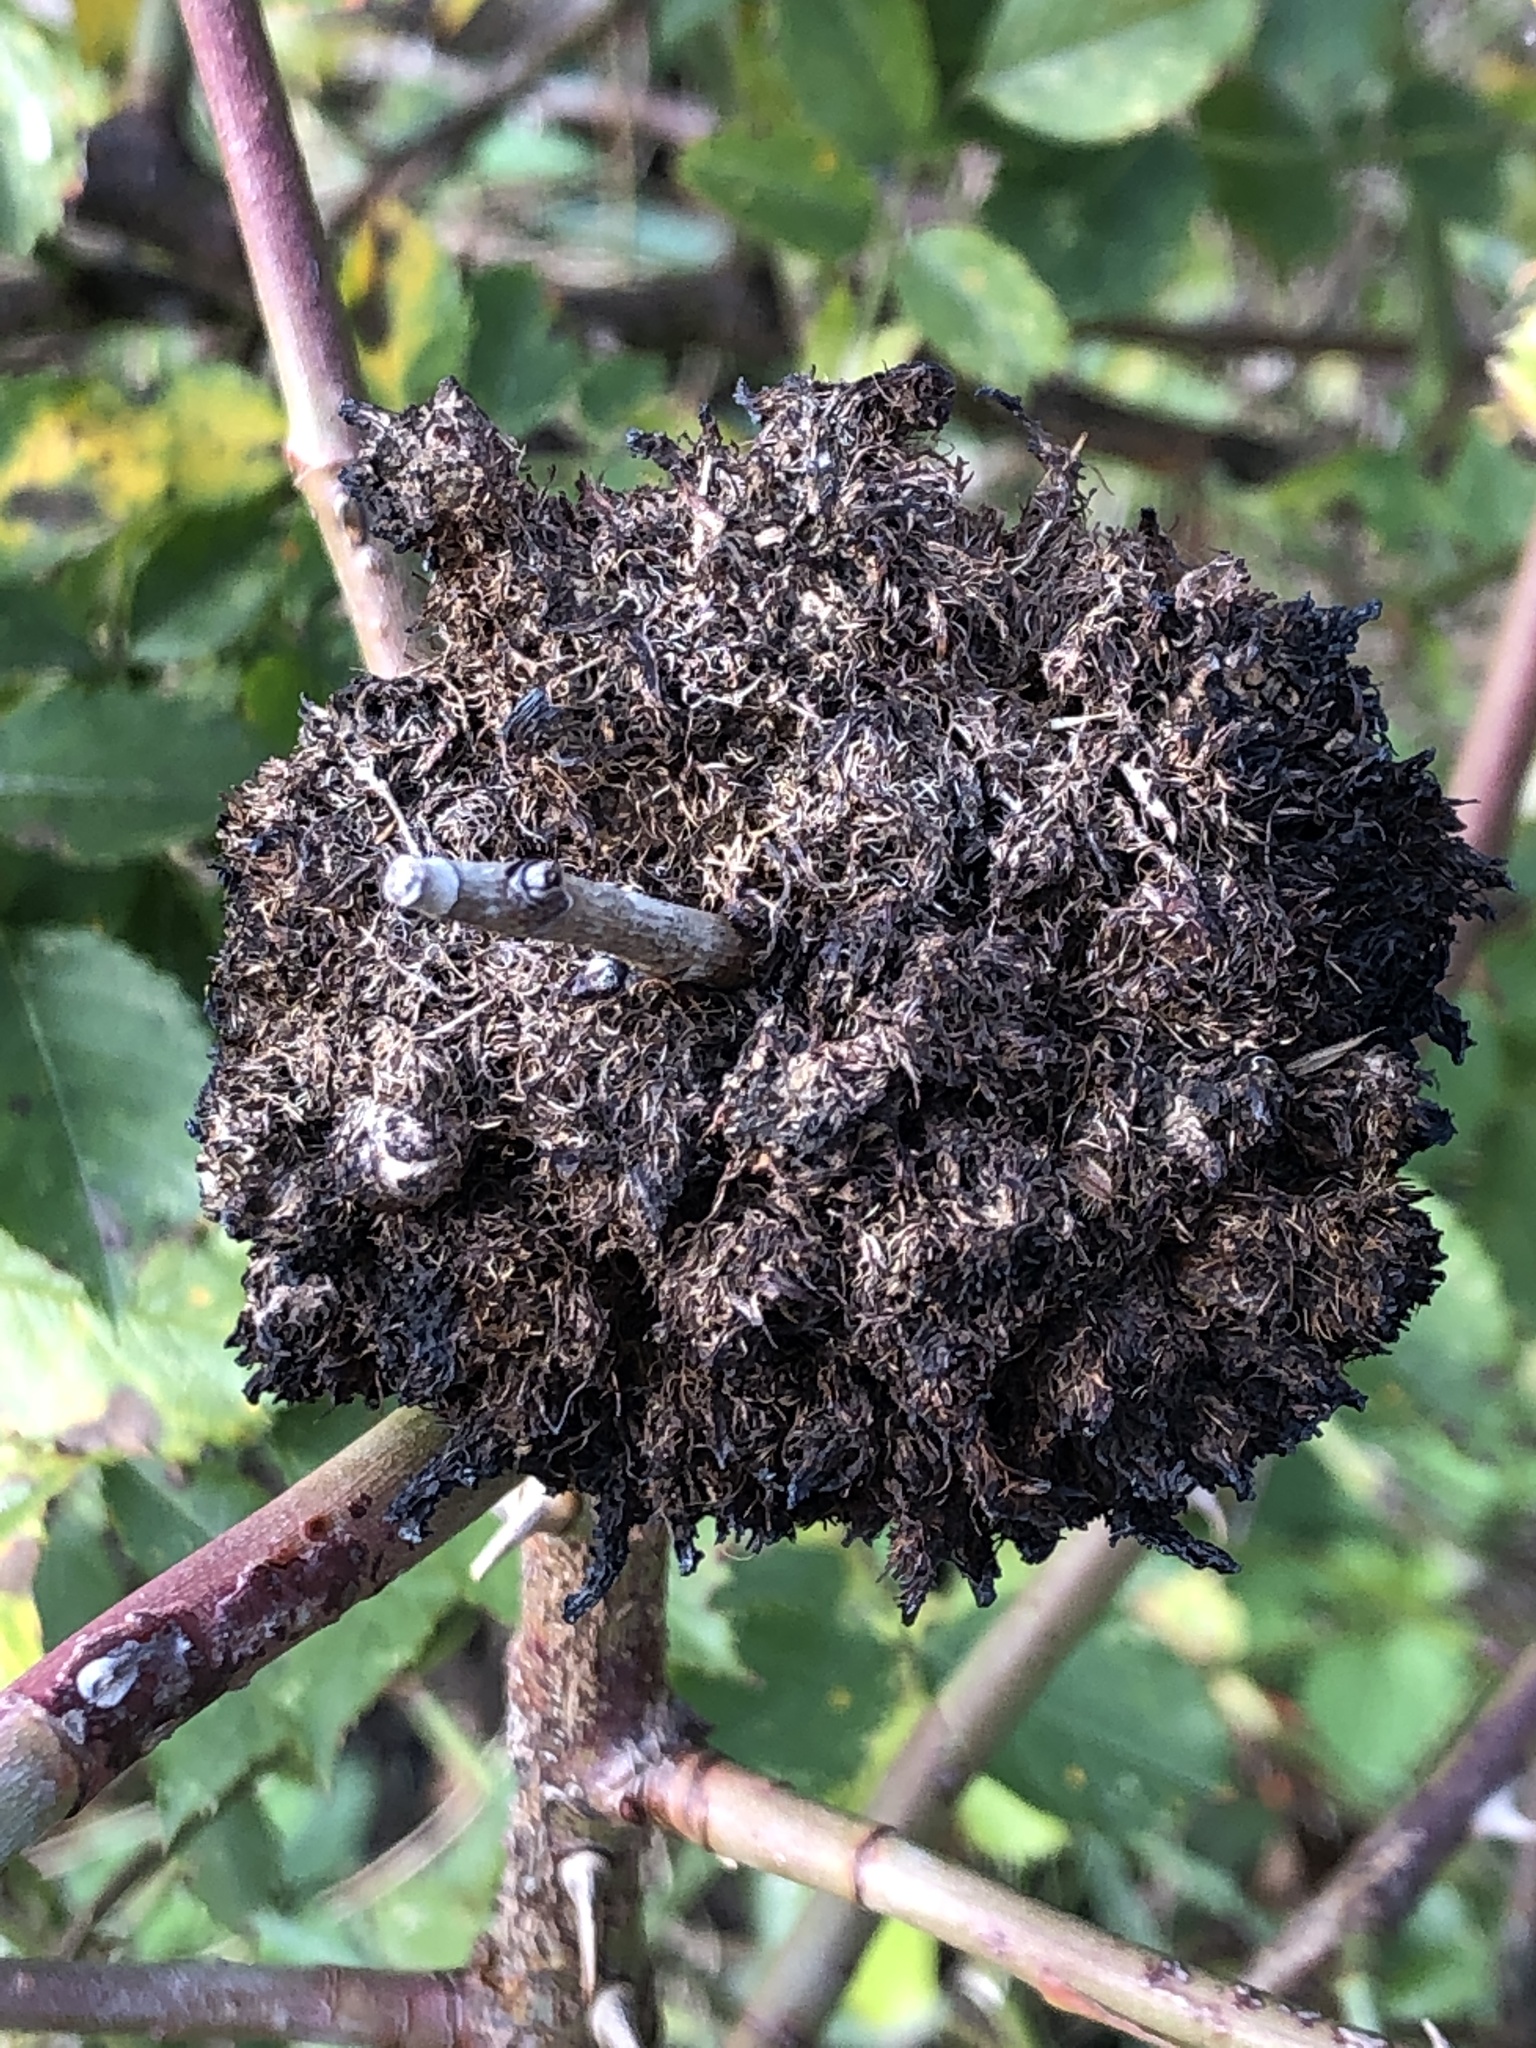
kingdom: Animalia
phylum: Arthropoda
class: Insecta
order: Hymenoptera
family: Cynipidae
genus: Diplolepis
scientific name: Diplolepis rosae
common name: Bedeguar gall
